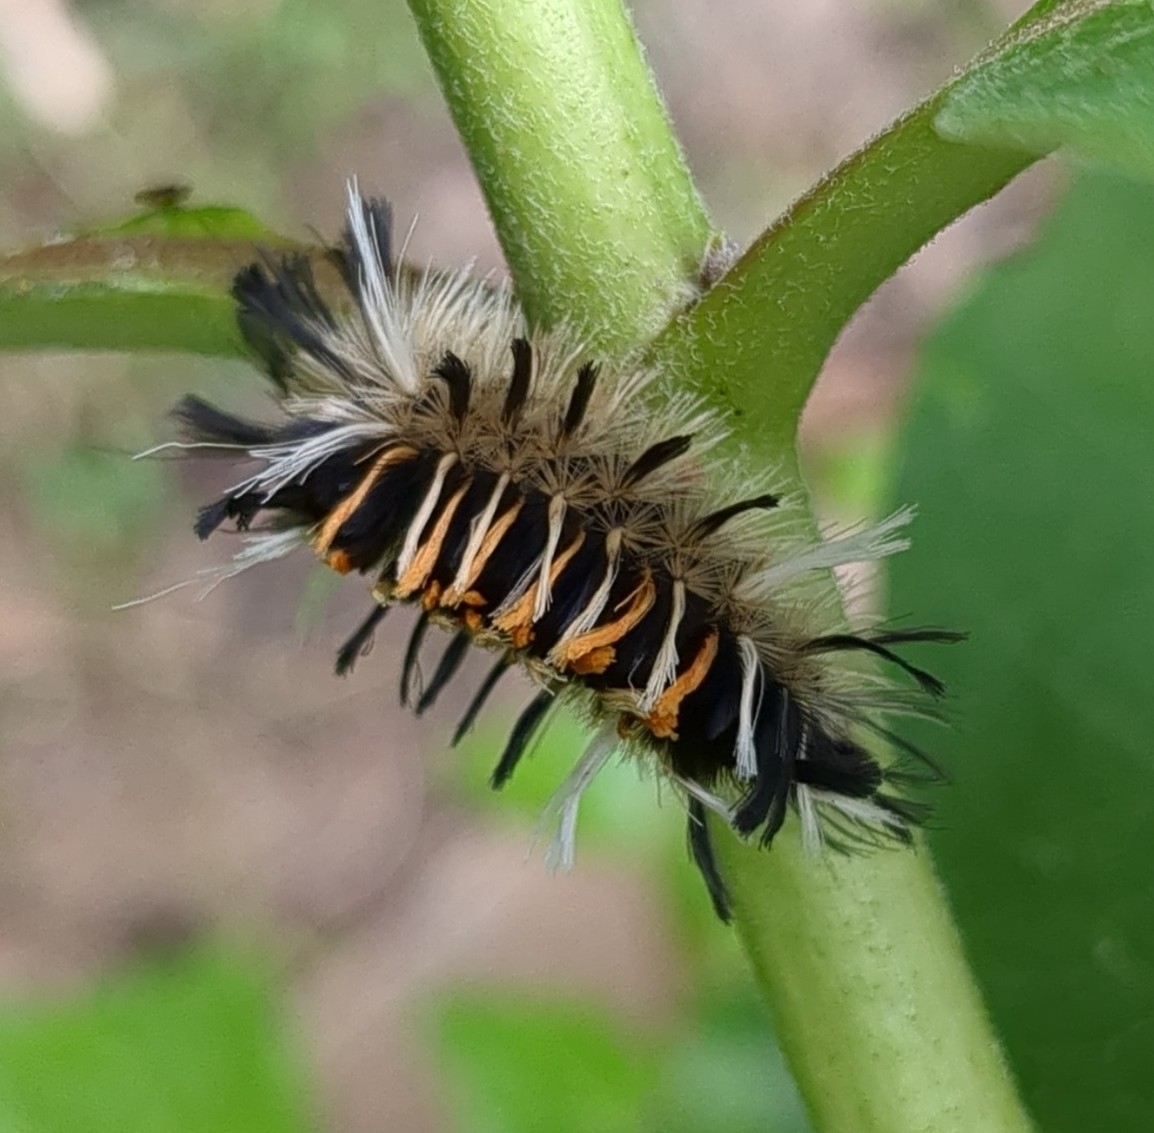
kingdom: Animalia
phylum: Arthropoda
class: Insecta
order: Lepidoptera
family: Erebidae
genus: Euchaetes
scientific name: Euchaetes egle
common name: Milkweed tussock moth
